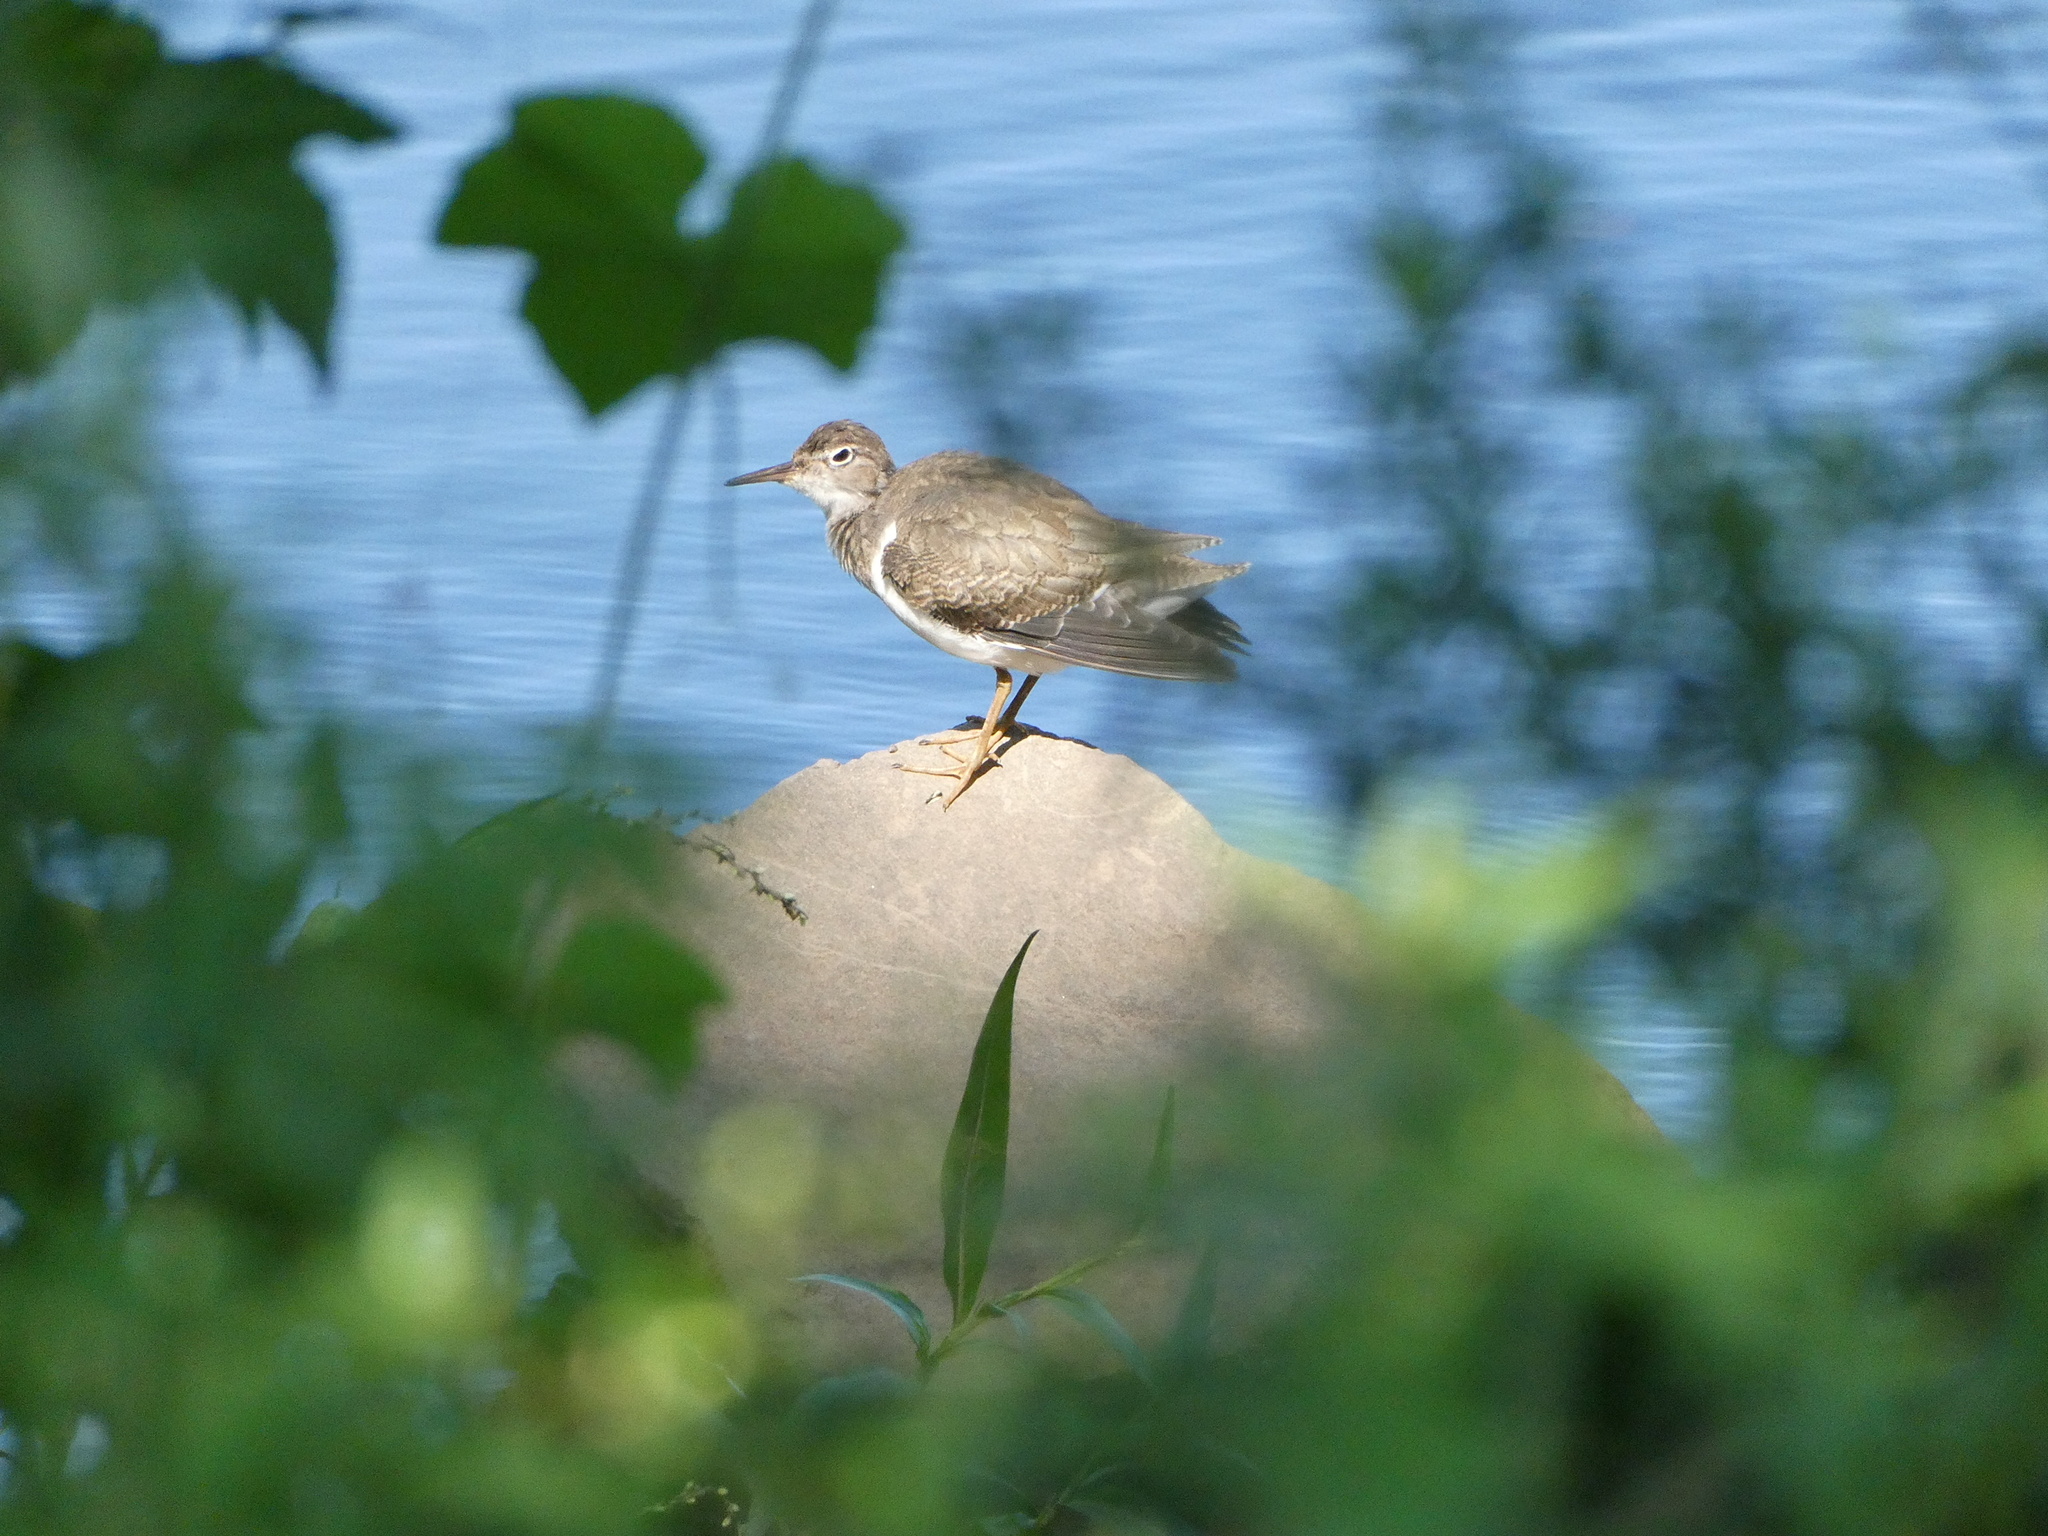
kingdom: Animalia
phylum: Chordata
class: Aves
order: Charadriiformes
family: Scolopacidae
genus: Actitis
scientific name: Actitis macularius
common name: Spotted sandpiper
